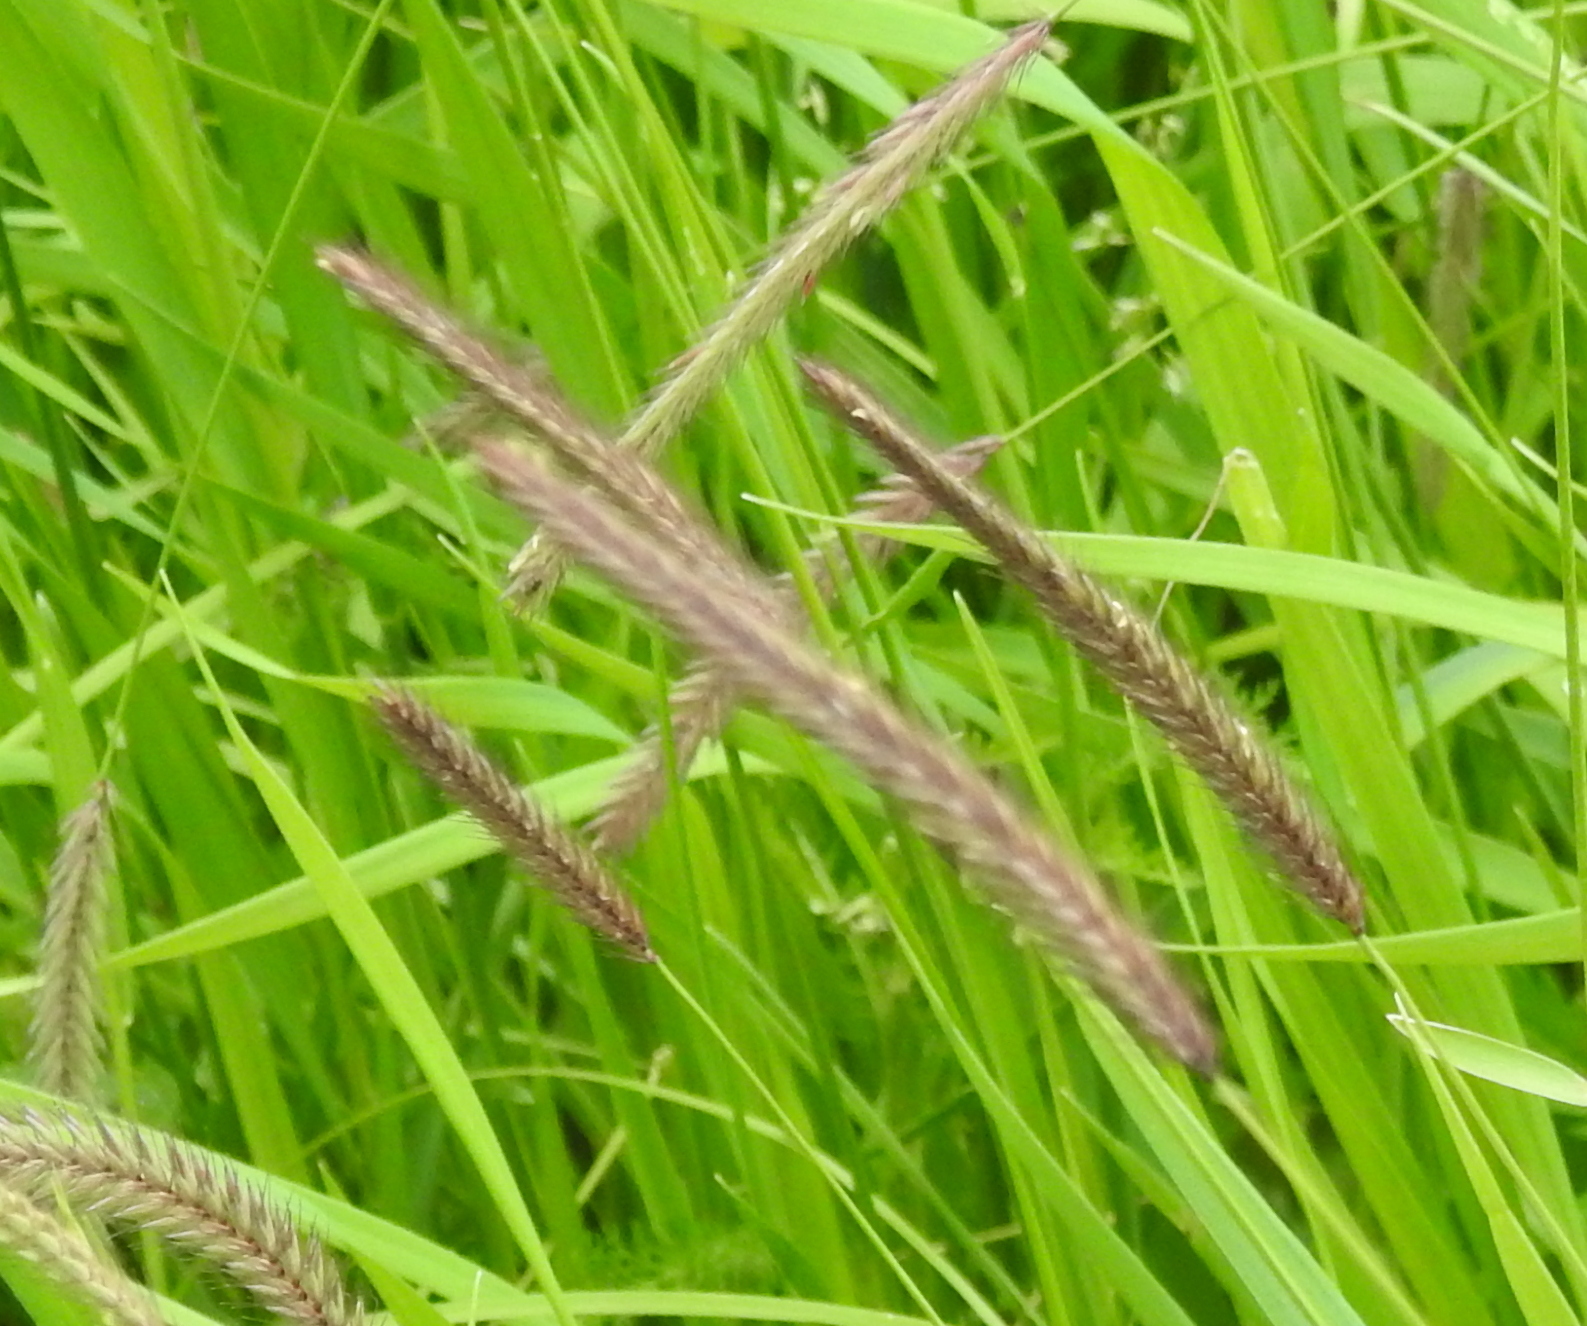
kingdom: Plantae
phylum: Tracheophyta
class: Liliopsida
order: Poales
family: Poaceae
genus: Hordeum
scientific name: Hordeum brevisubulatum
